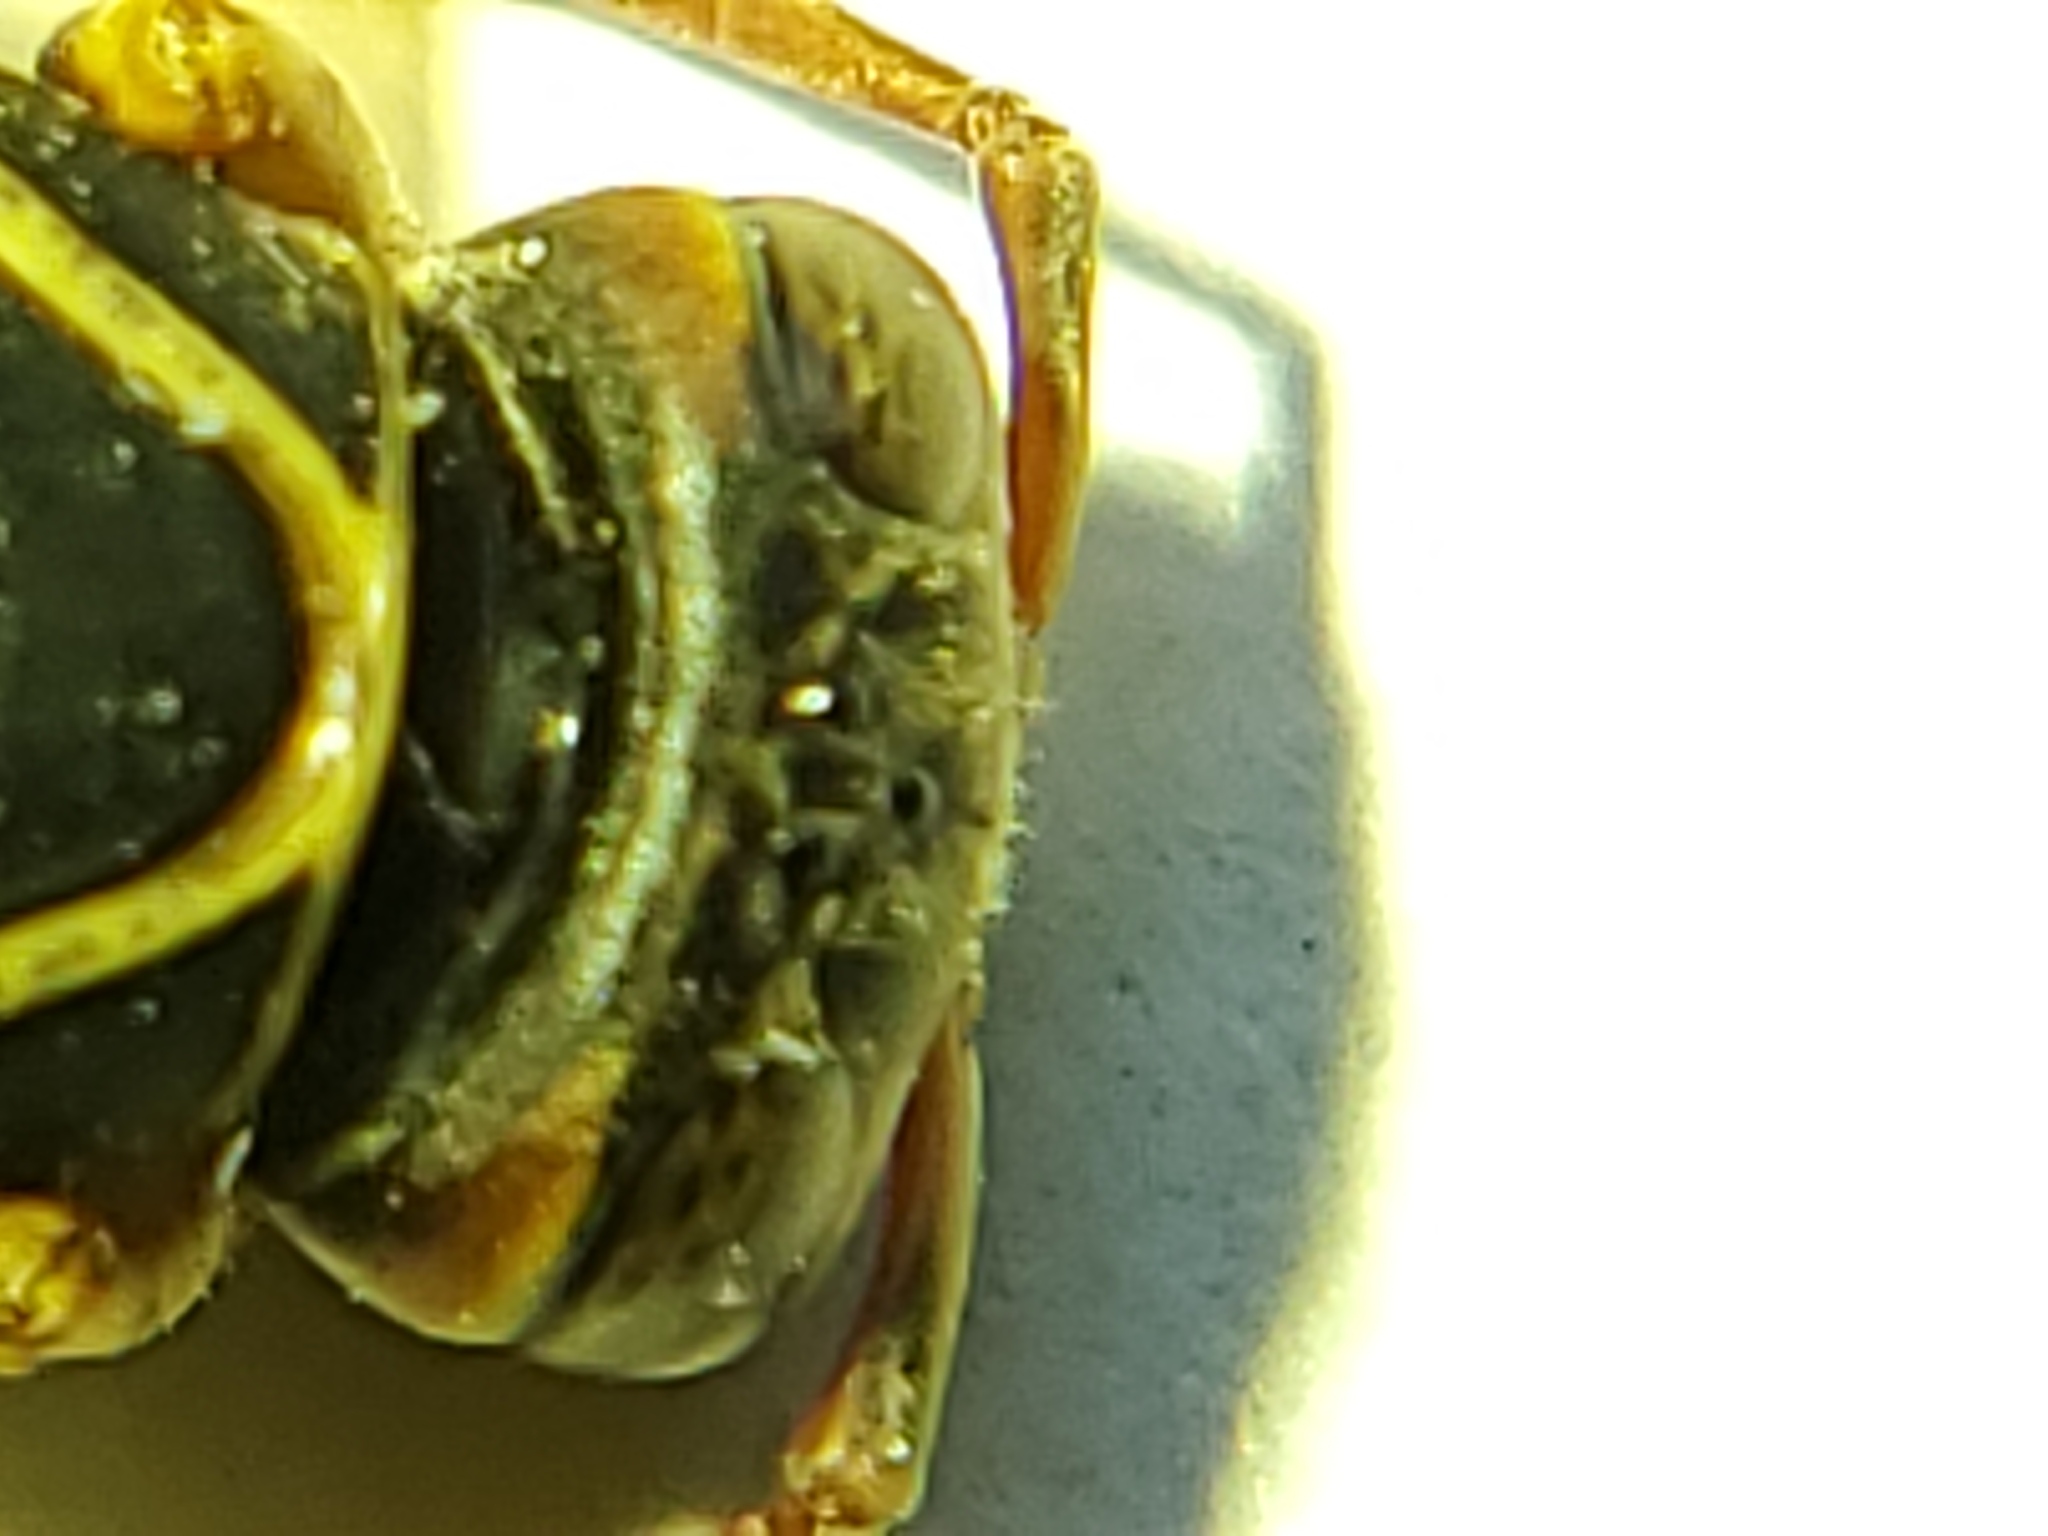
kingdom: Animalia
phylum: Arthropoda
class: Insecta
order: Hymenoptera
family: Eumenidae
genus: Polistes
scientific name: Polistes aurifer
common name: Paper wasp
